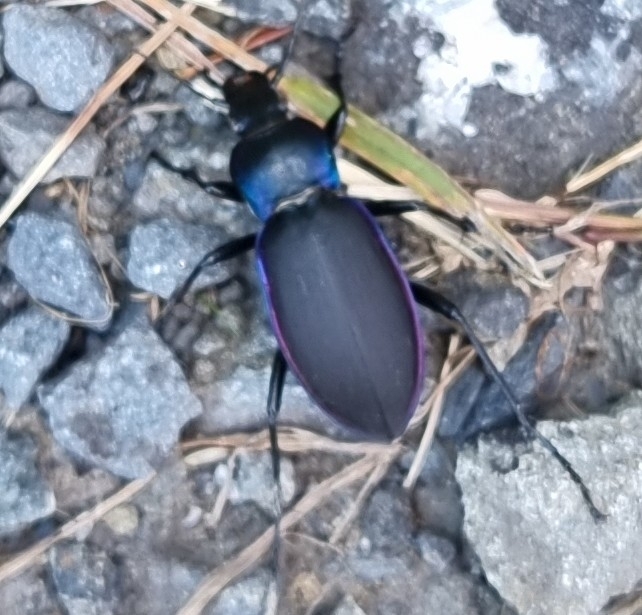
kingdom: Animalia
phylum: Arthropoda
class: Insecta
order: Coleoptera
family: Carabidae
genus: Carabus
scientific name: Carabus violaceus
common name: Violet ground beetle
